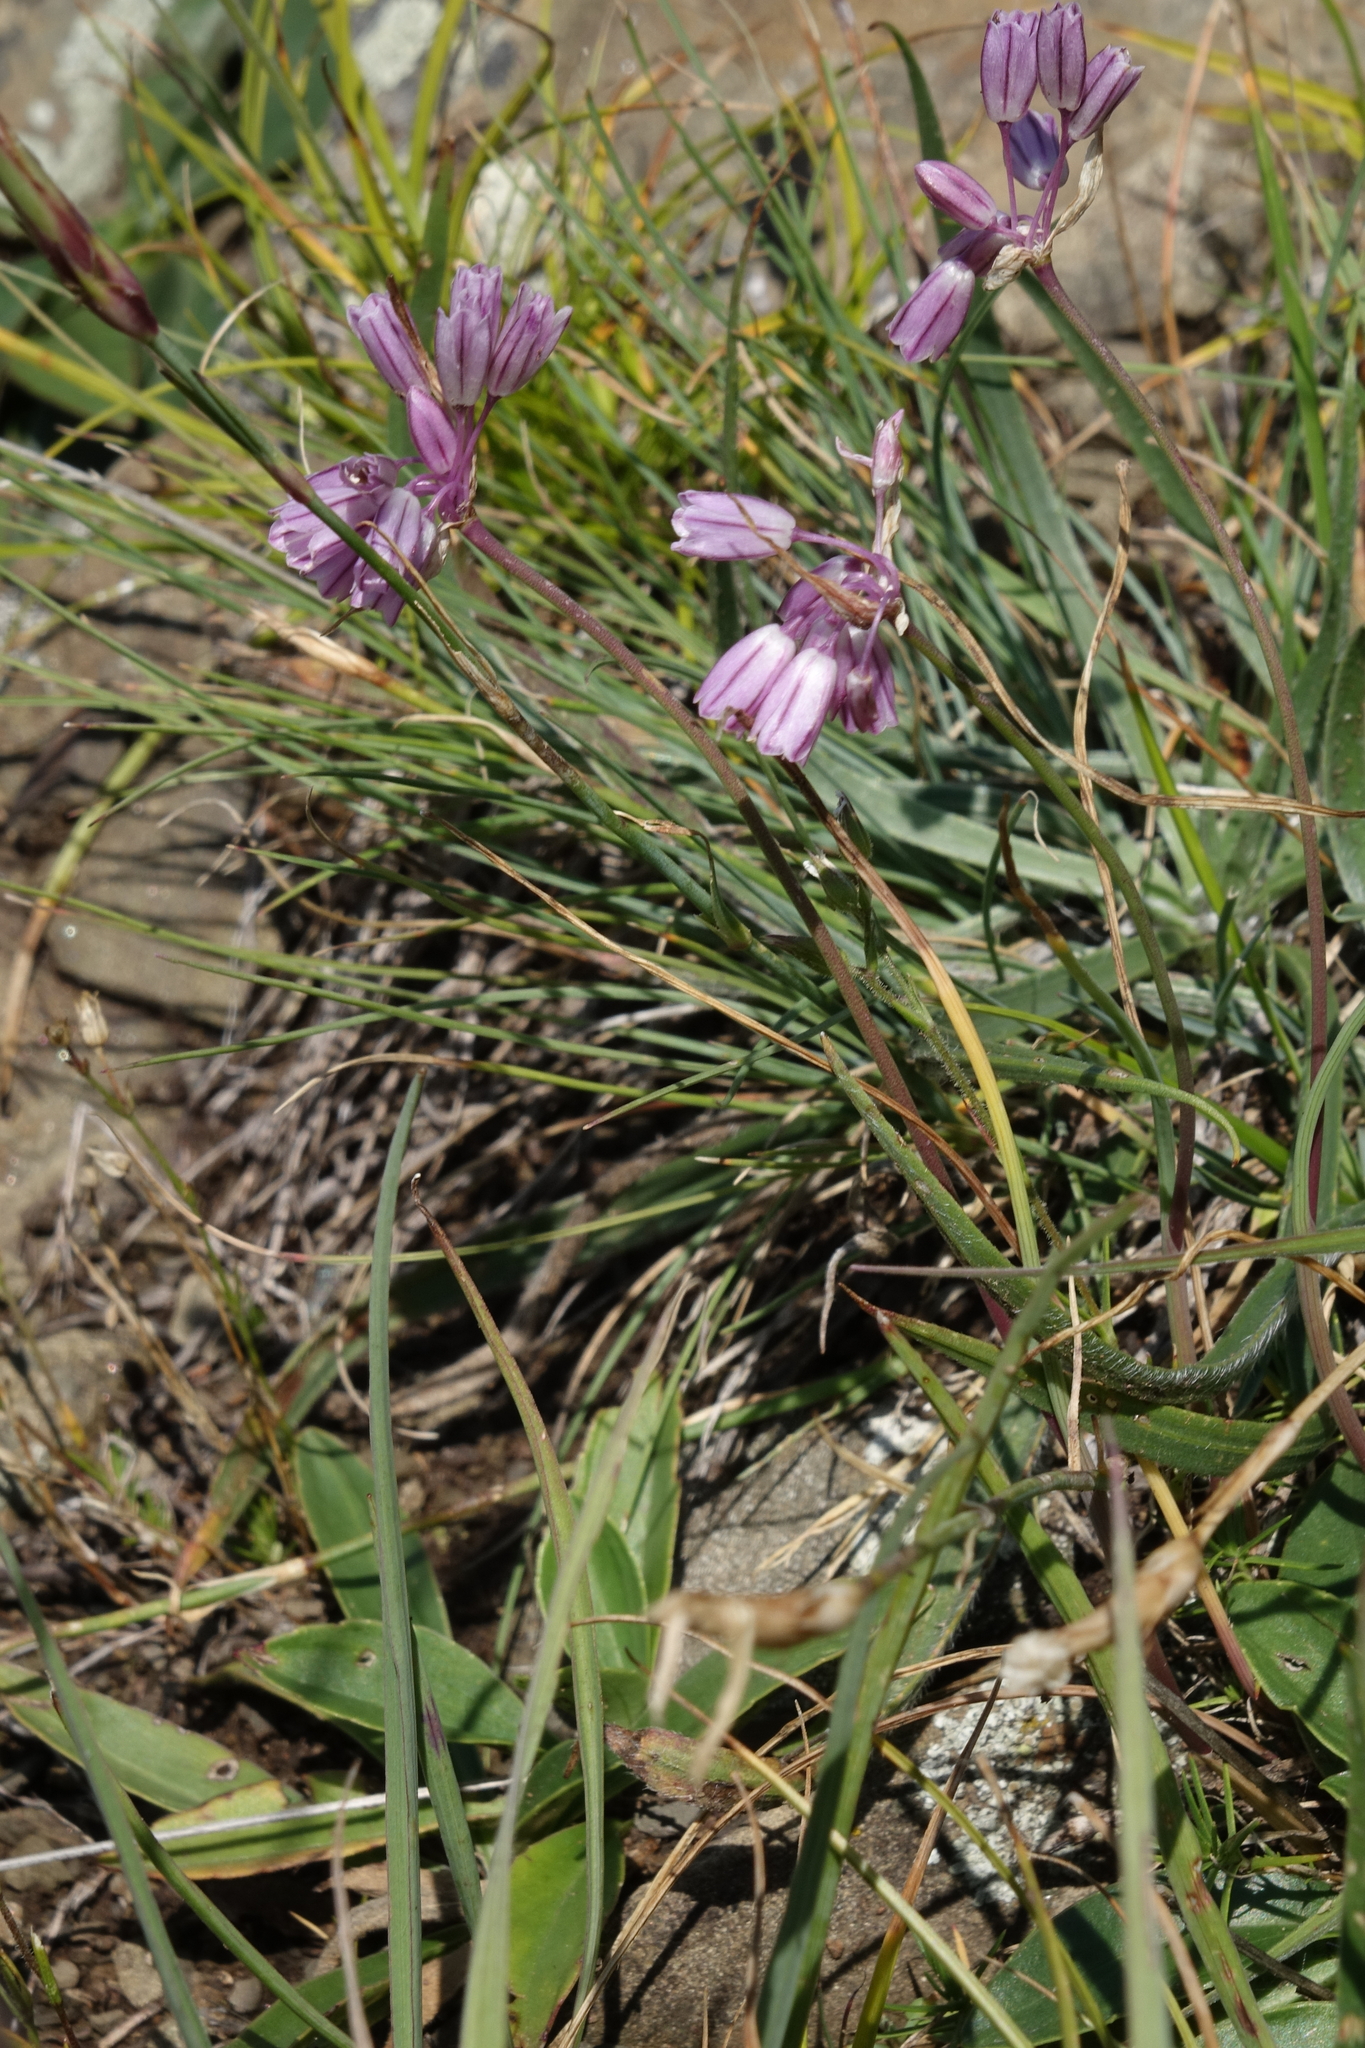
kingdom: Plantae
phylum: Tracheophyta
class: Liliopsida
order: Asparagales
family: Amaryllidaceae
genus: Allium
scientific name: Allium kunthianum
